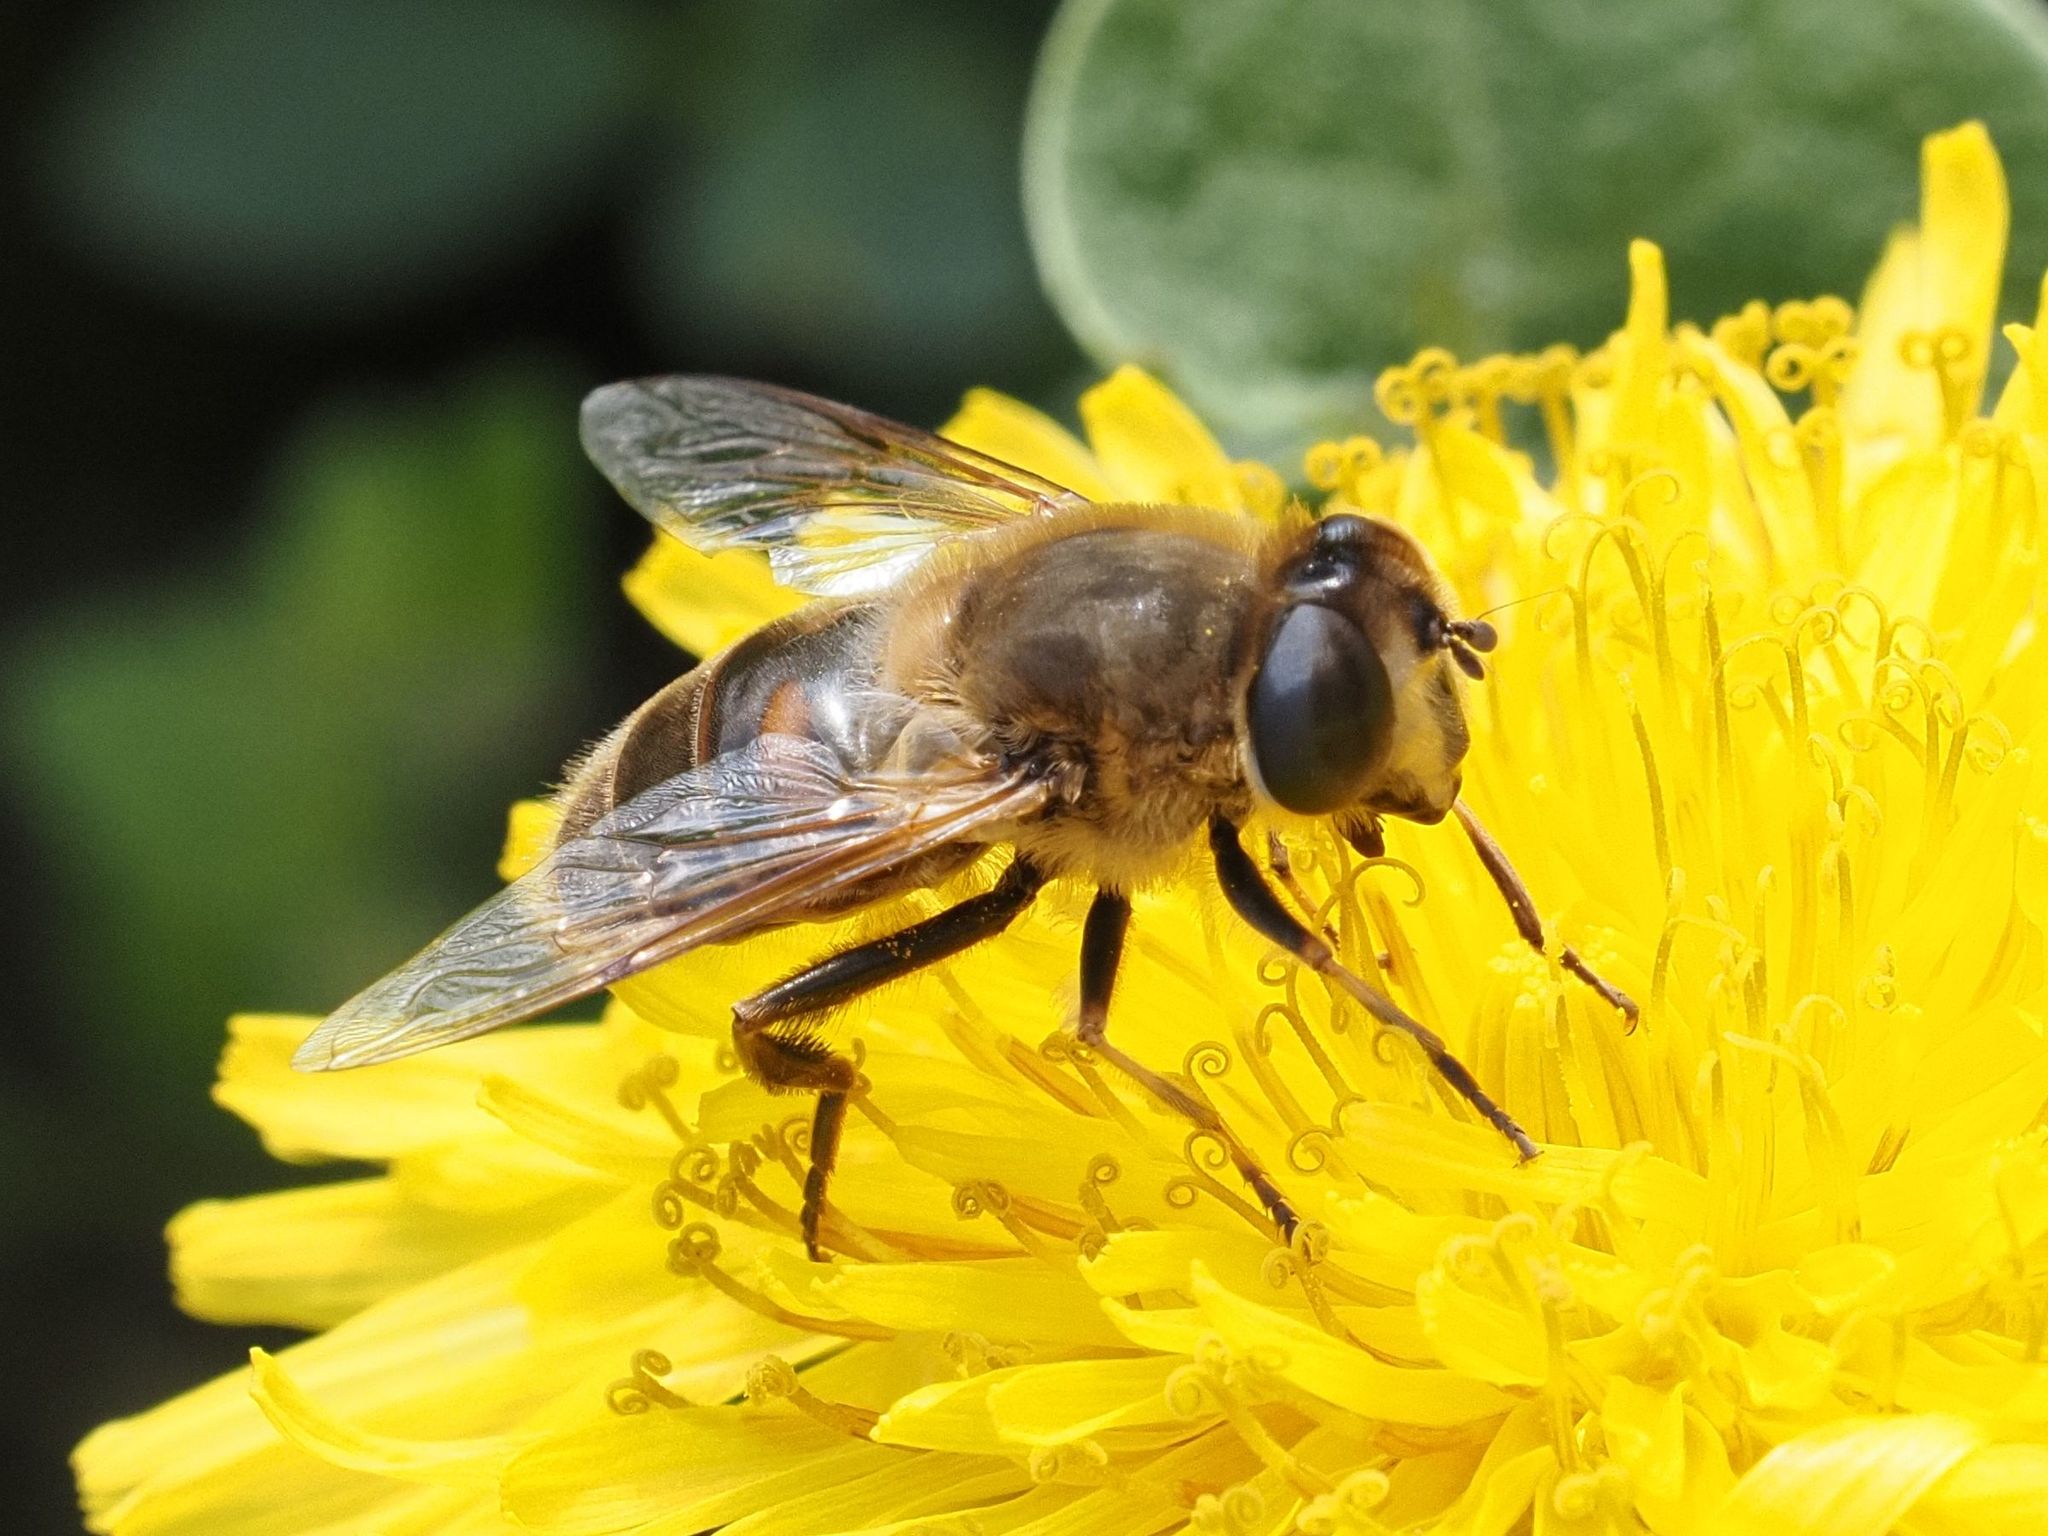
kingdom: Animalia
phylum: Arthropoda
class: Insecta
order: Diptera
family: Syrphidae
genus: Eristalis
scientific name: Eristalis tenax
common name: Drone fly
